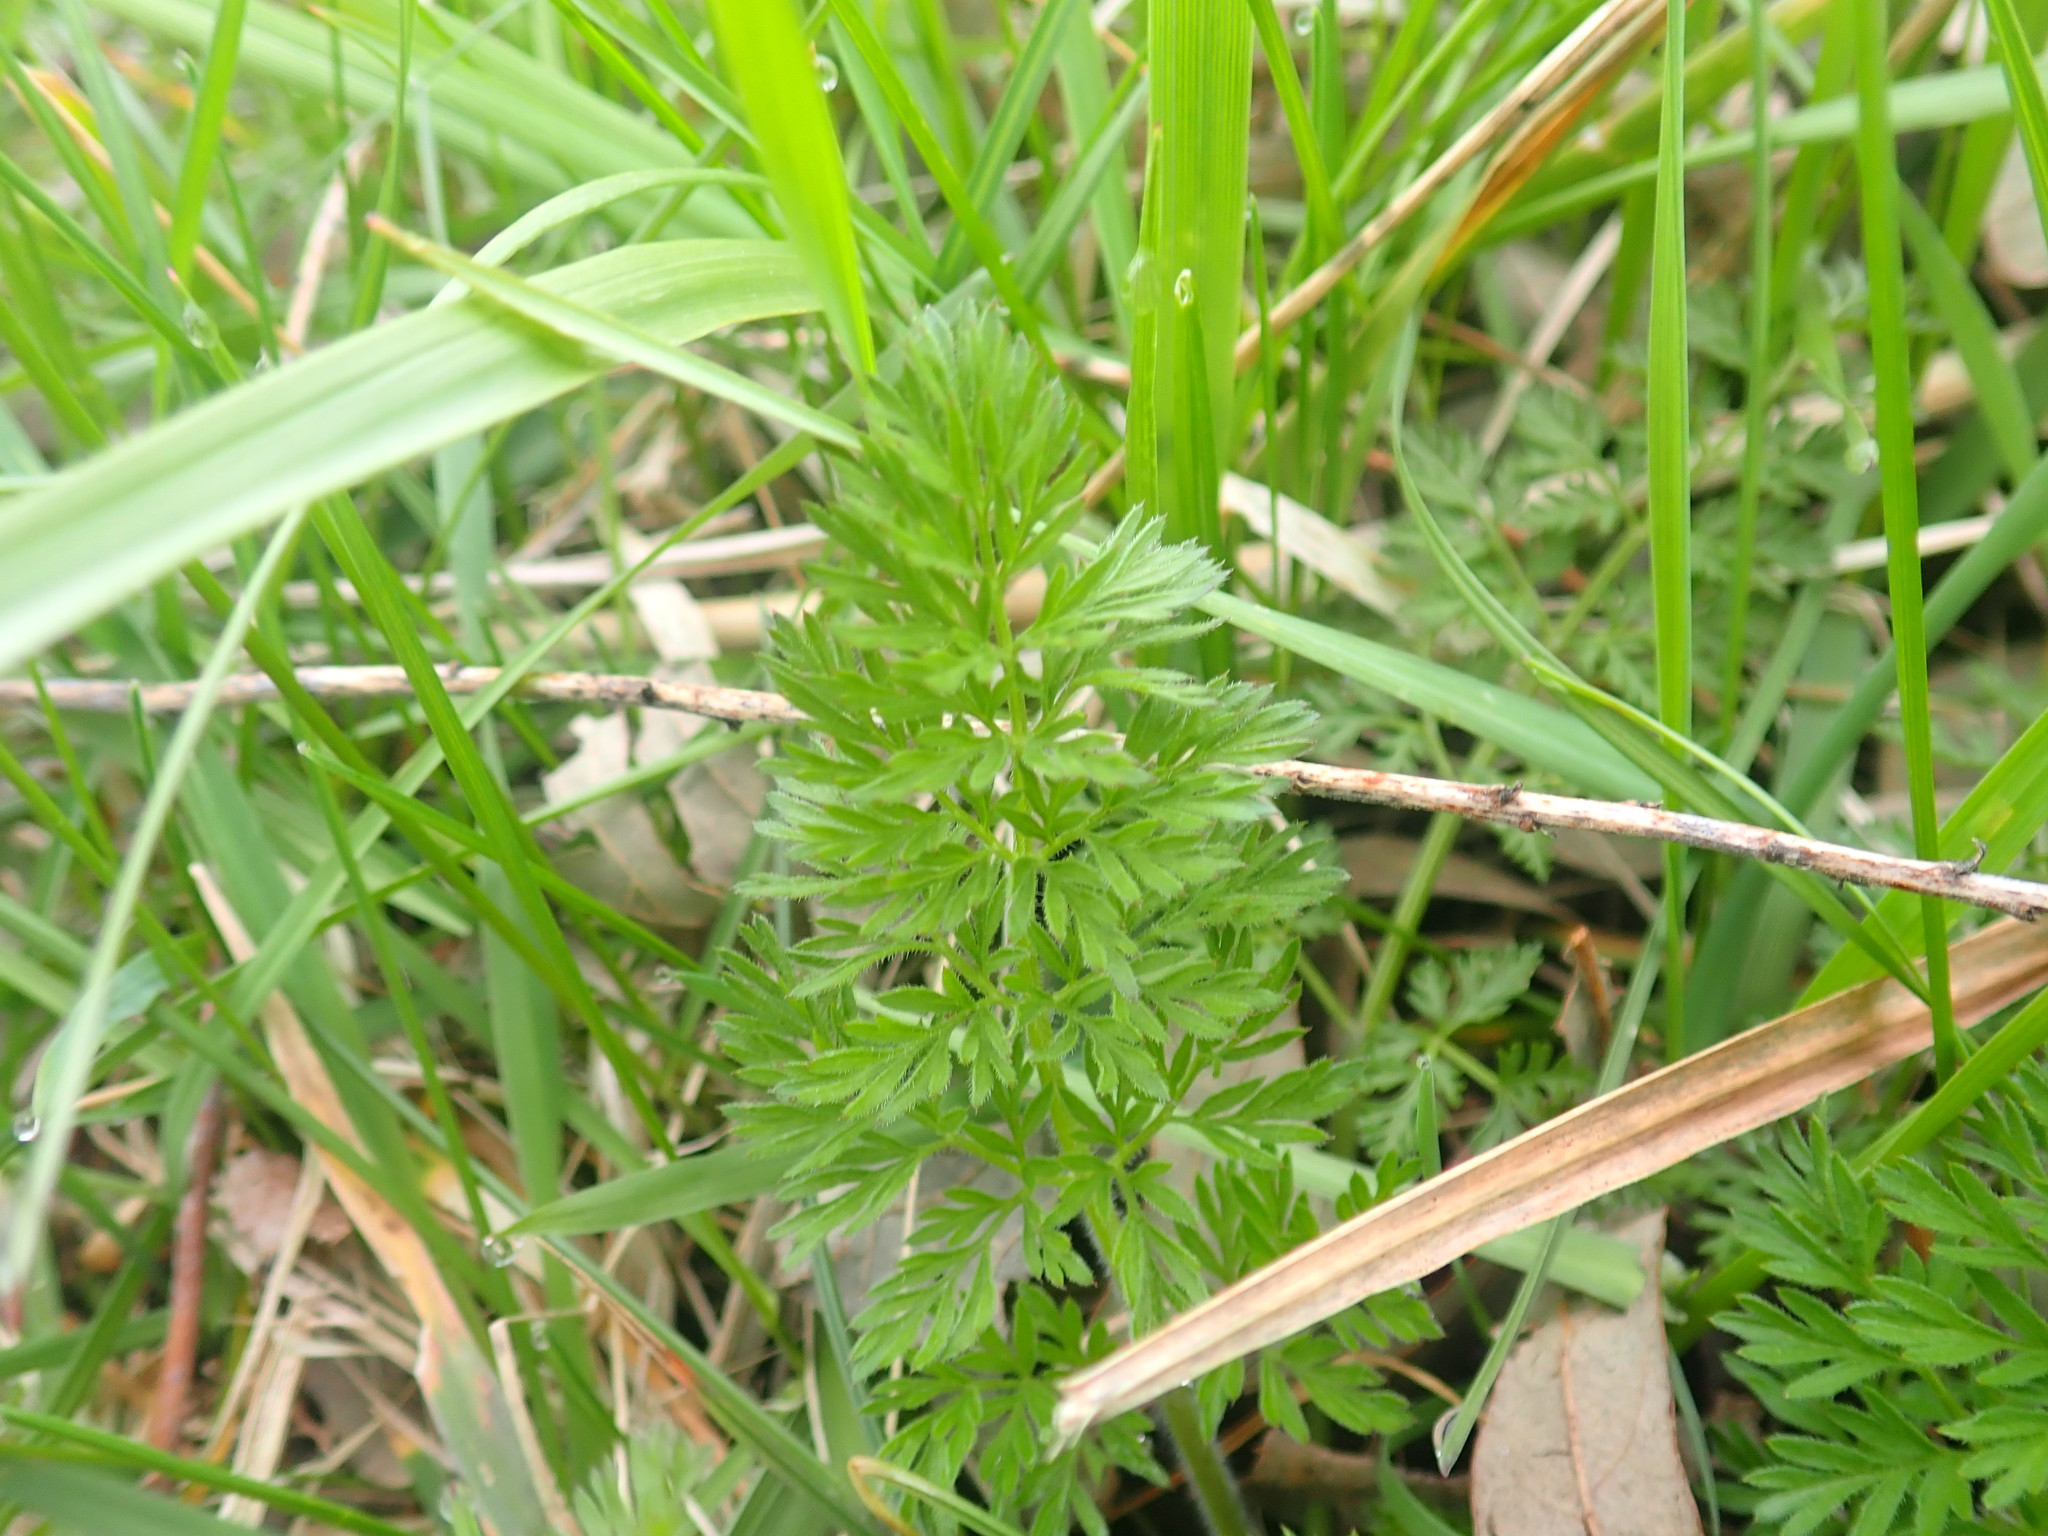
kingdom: Plantae
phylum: Tracheophyta
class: Magnoliopsida
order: Apiales
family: Apiaceae
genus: Daucus
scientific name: Daucus carota
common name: Wild carrot
